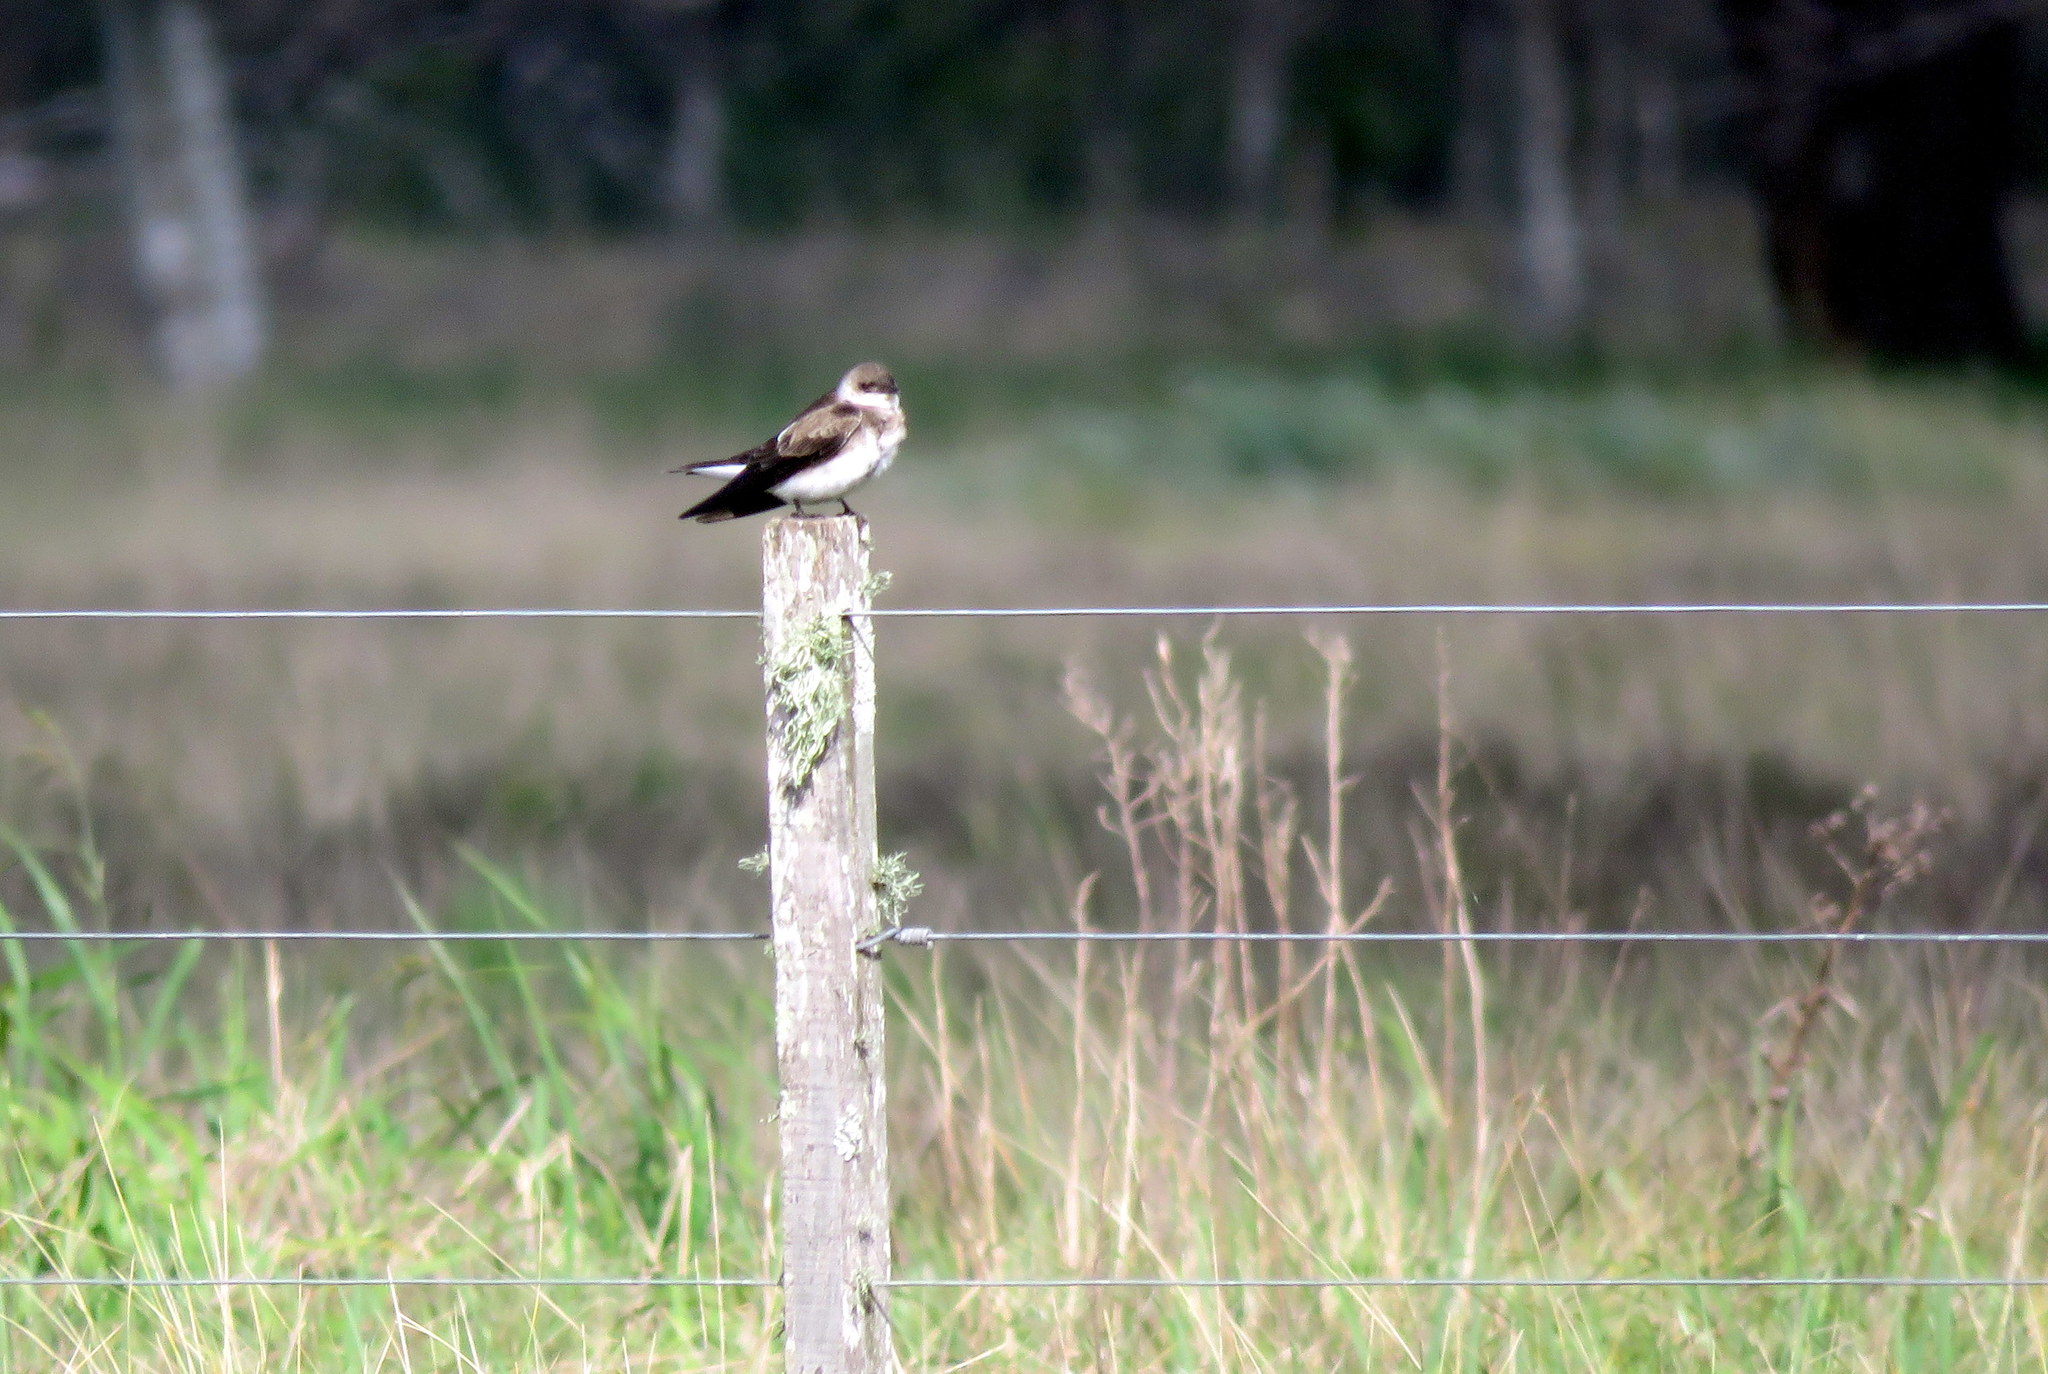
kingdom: Animalia
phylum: Chordata
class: Aves
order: Passeriformes
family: Hirundinidae
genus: Progne
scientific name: Progne tapera
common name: Brown-chested martin
